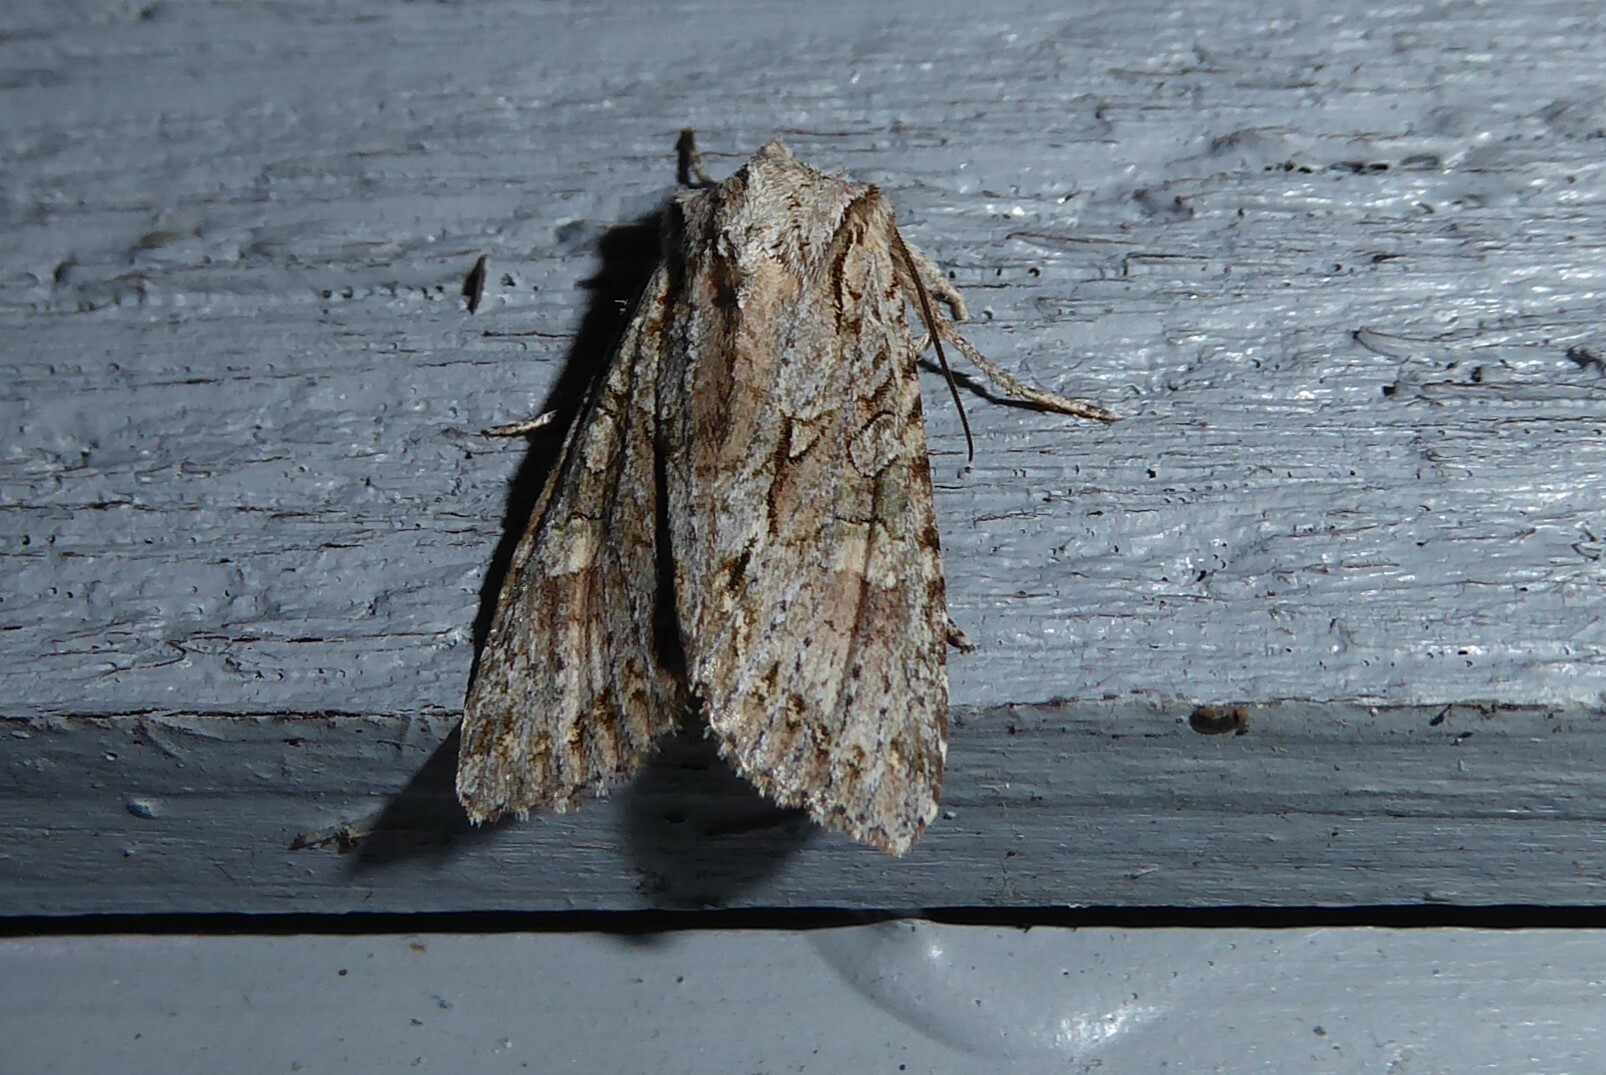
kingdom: Animalia
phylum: Arthropoda
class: Insecta
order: Lepidoptera
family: Noctuidae
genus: Ichneutica
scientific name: Ichneutica mutans
